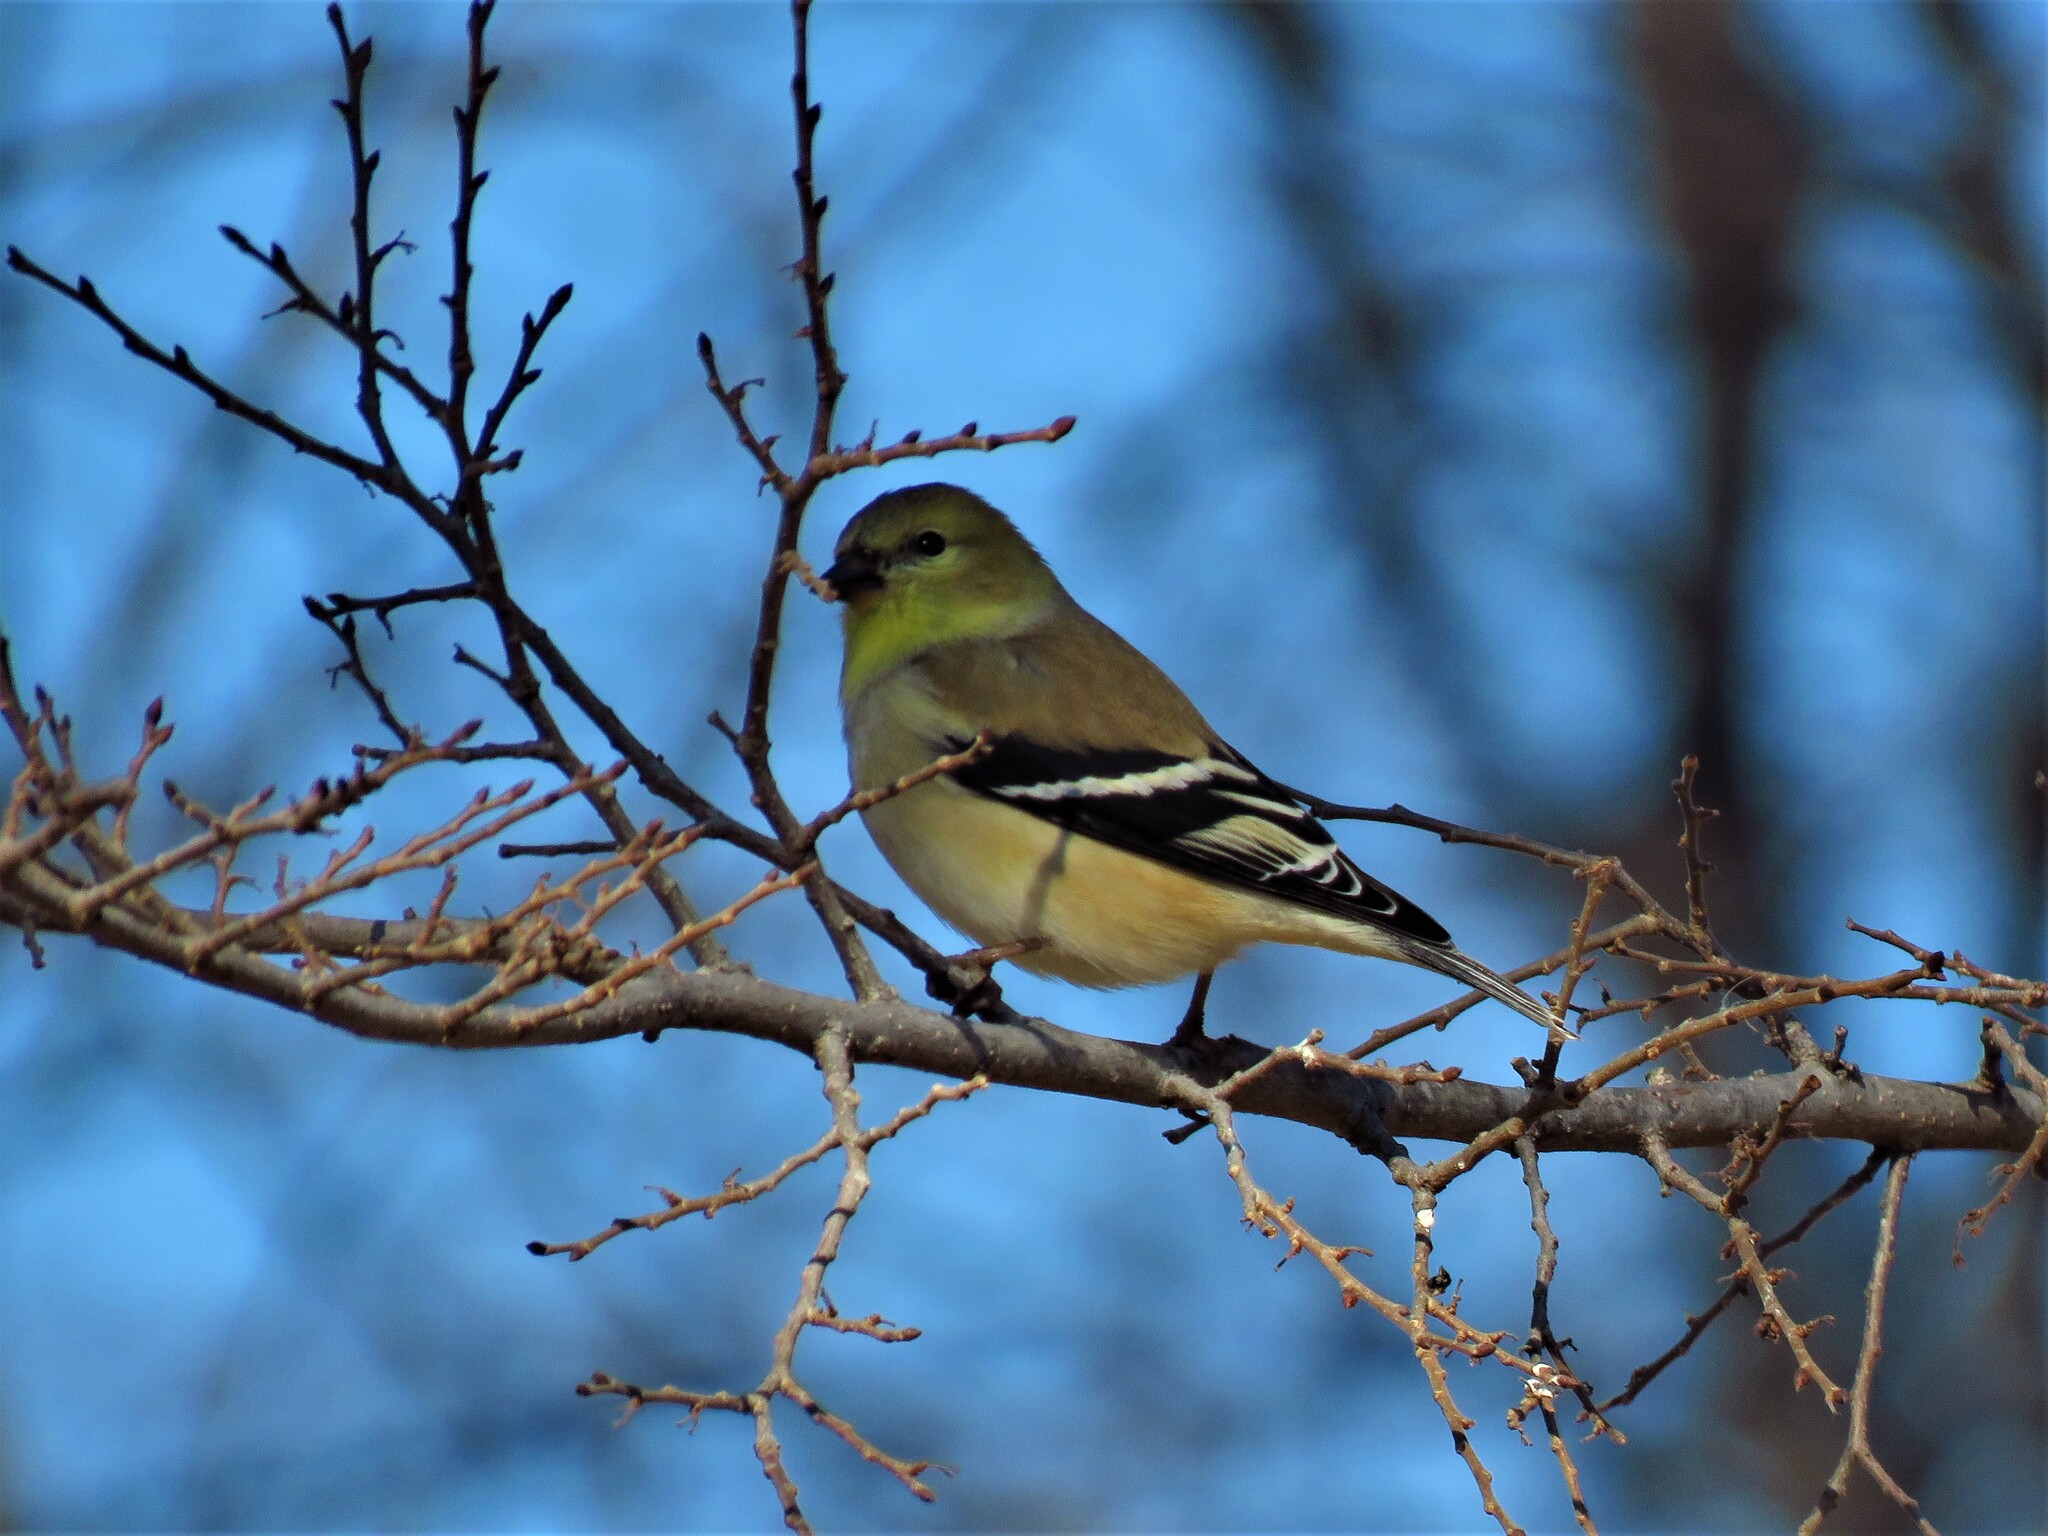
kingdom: Animalia
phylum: Chordata
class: Aves
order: Passeriformes
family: Fringillidae
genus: Spinus
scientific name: Spinus tristis
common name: American goldfinch
